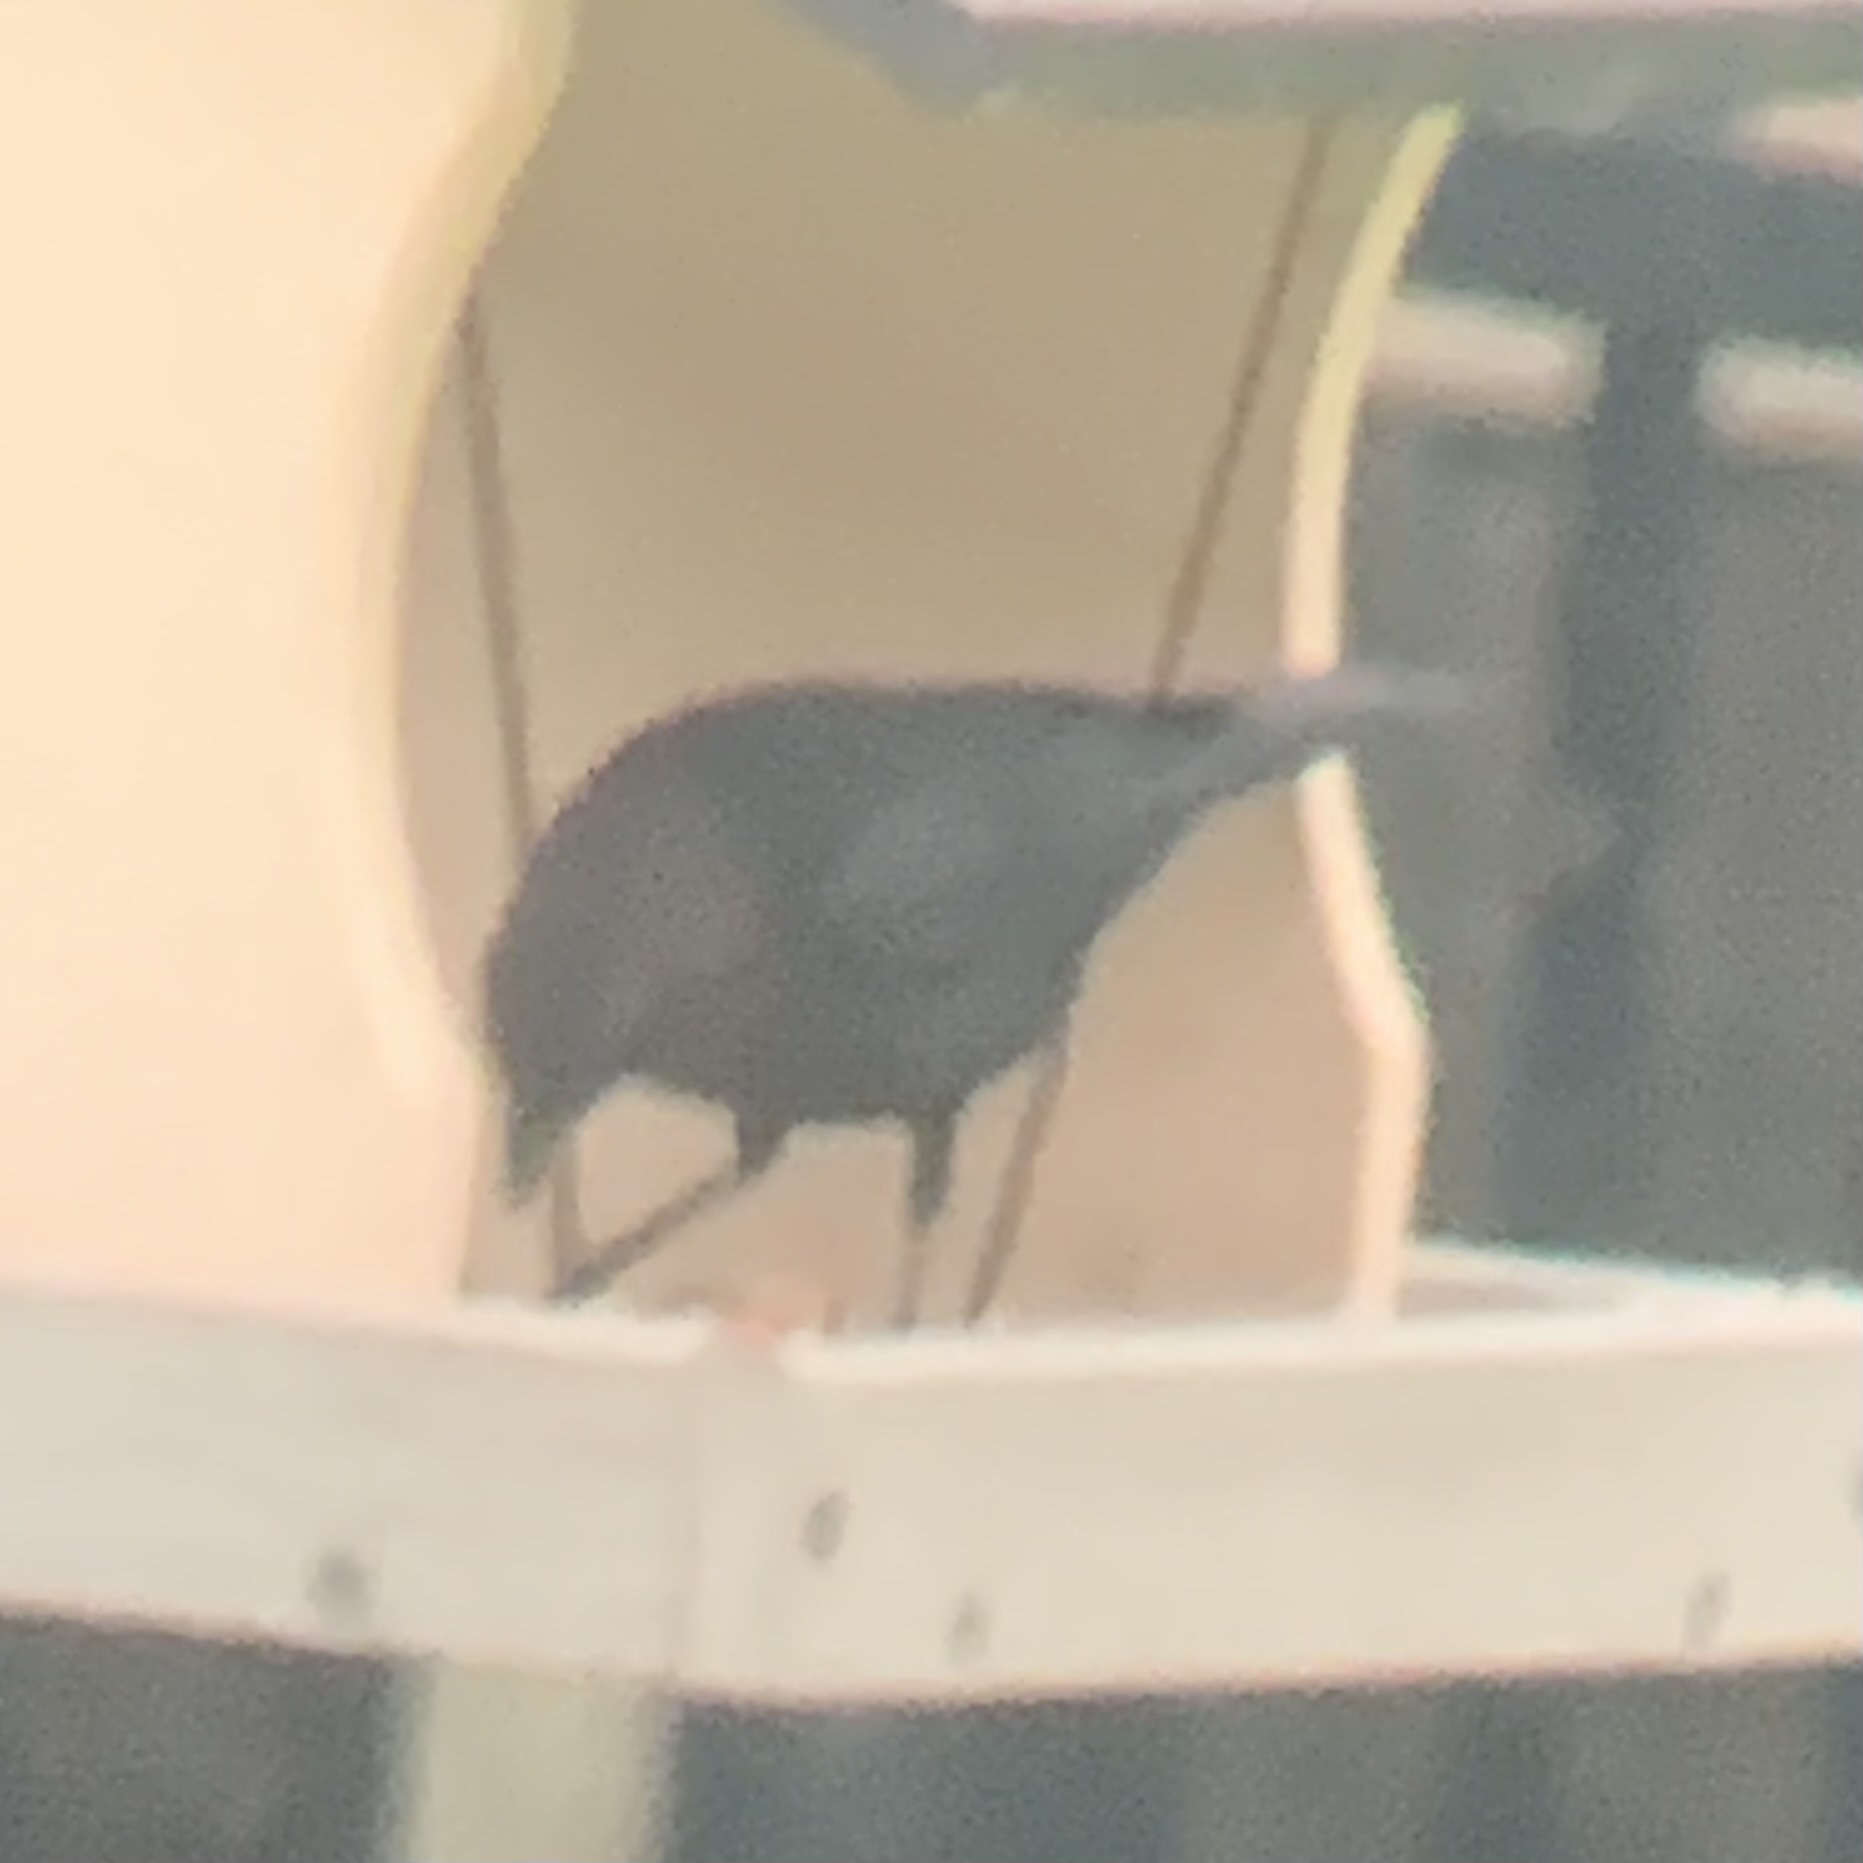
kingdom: Animalia
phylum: Chordata
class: Aves
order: Passeriformes
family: Icteridae
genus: Molothrus
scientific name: Molothrus ater
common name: Brown-headed cowbird
